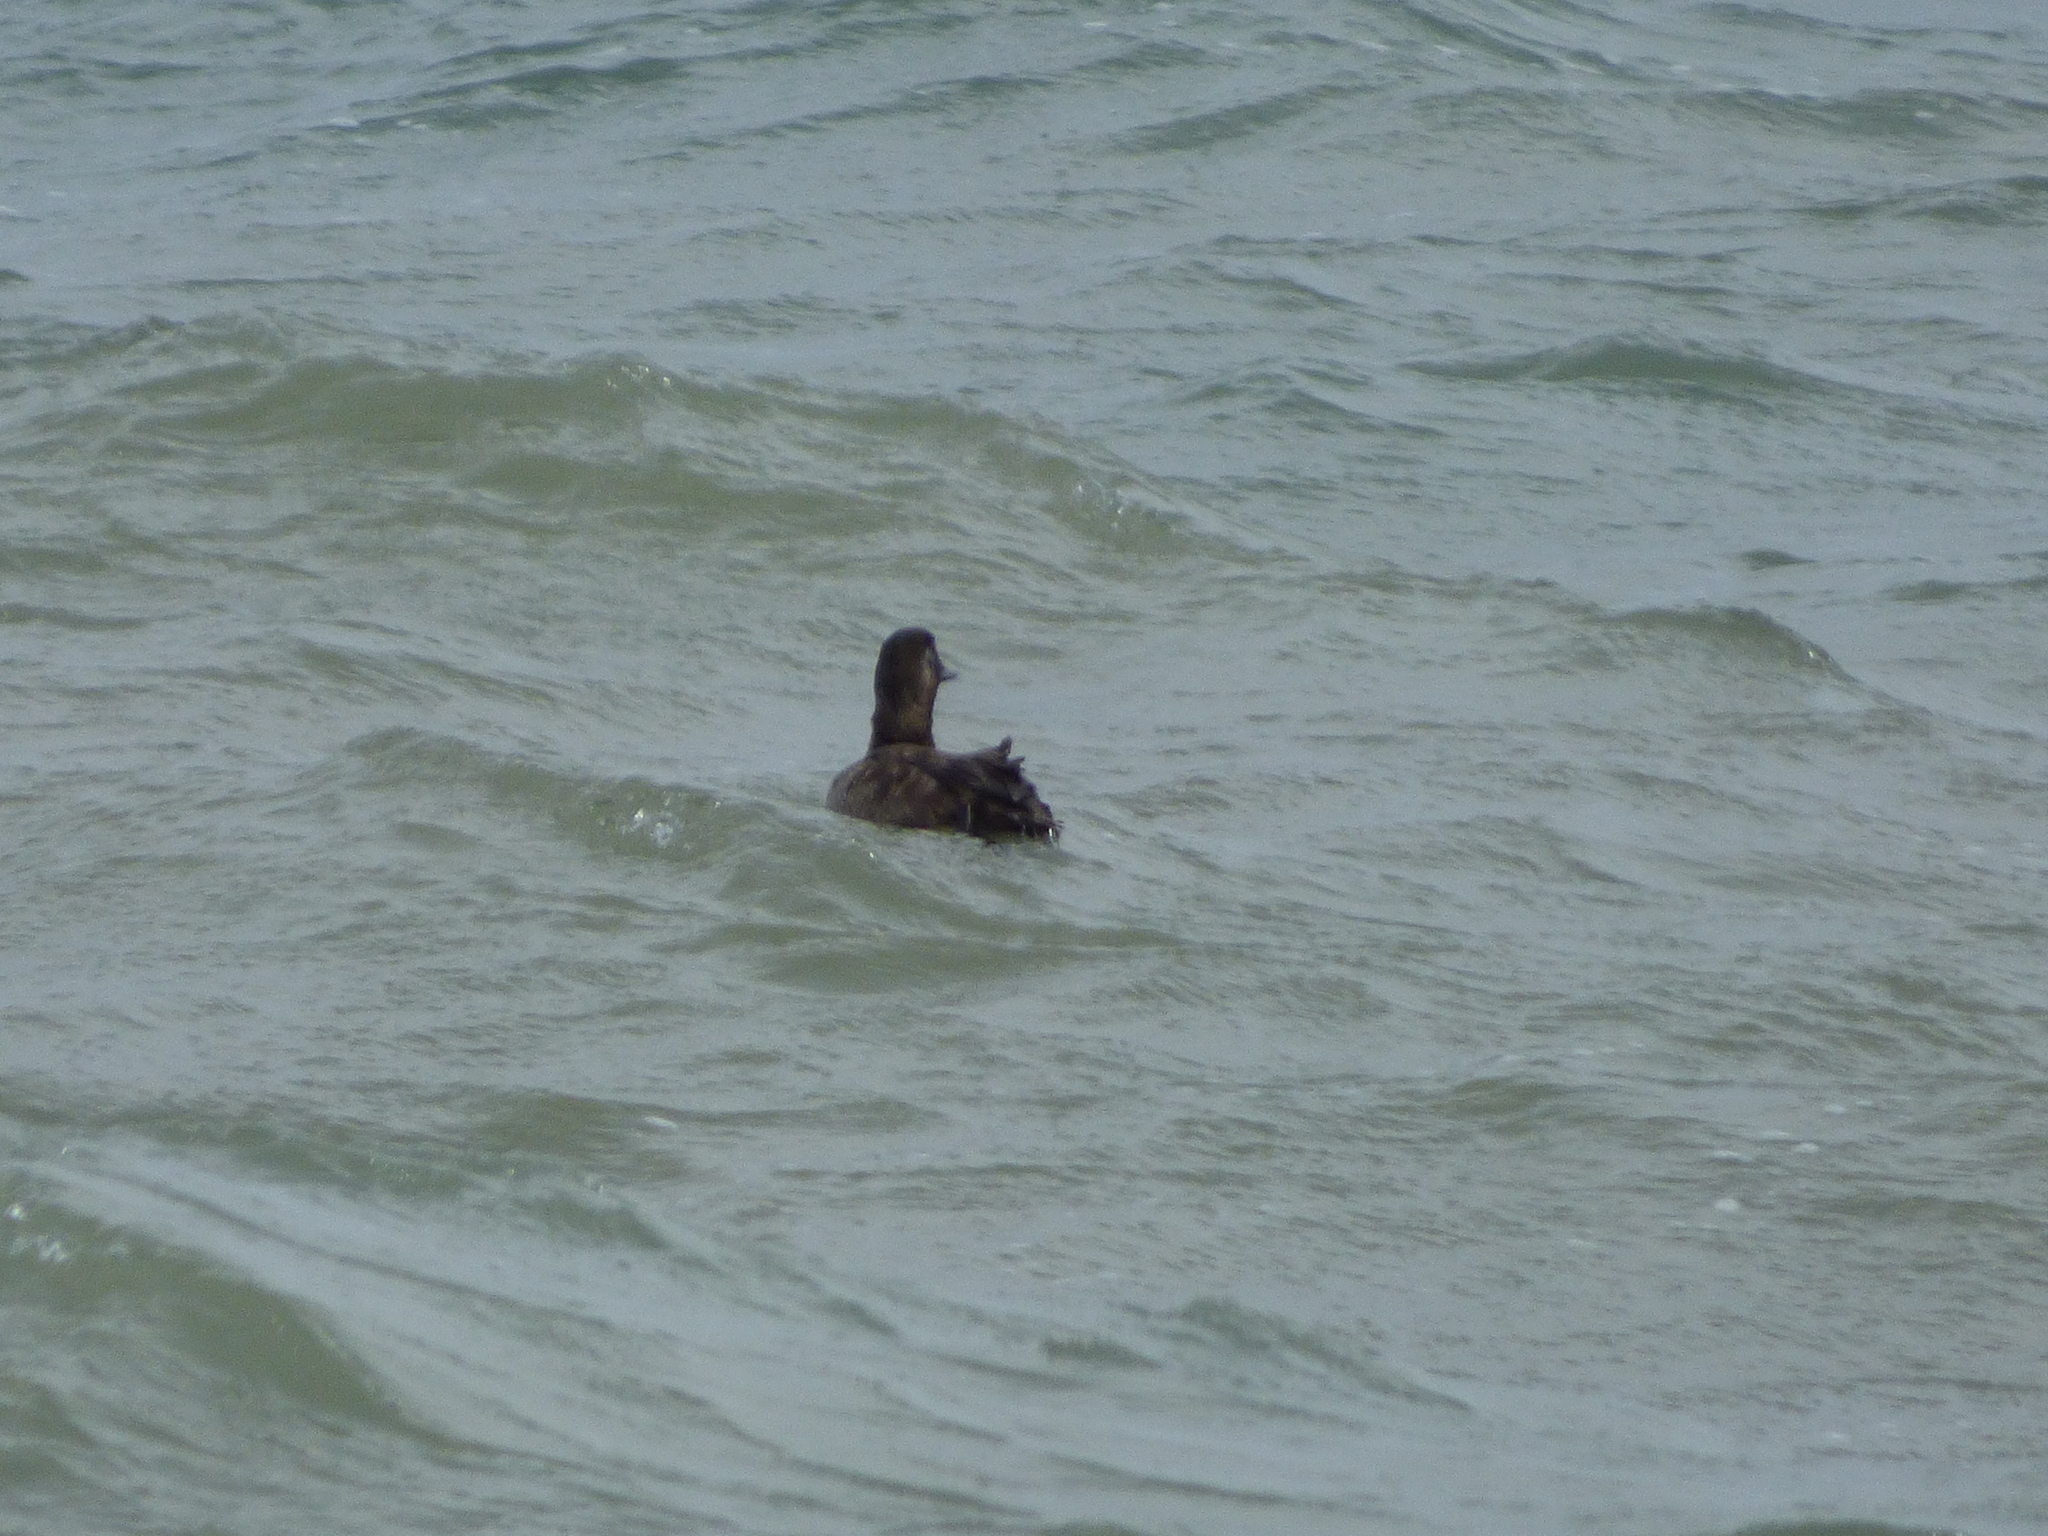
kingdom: Animalia
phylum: Chordata
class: Aves
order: Anseriformes
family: Anatidae
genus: Melanitta
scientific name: Melanitta deglandi
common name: White-winged scoter
